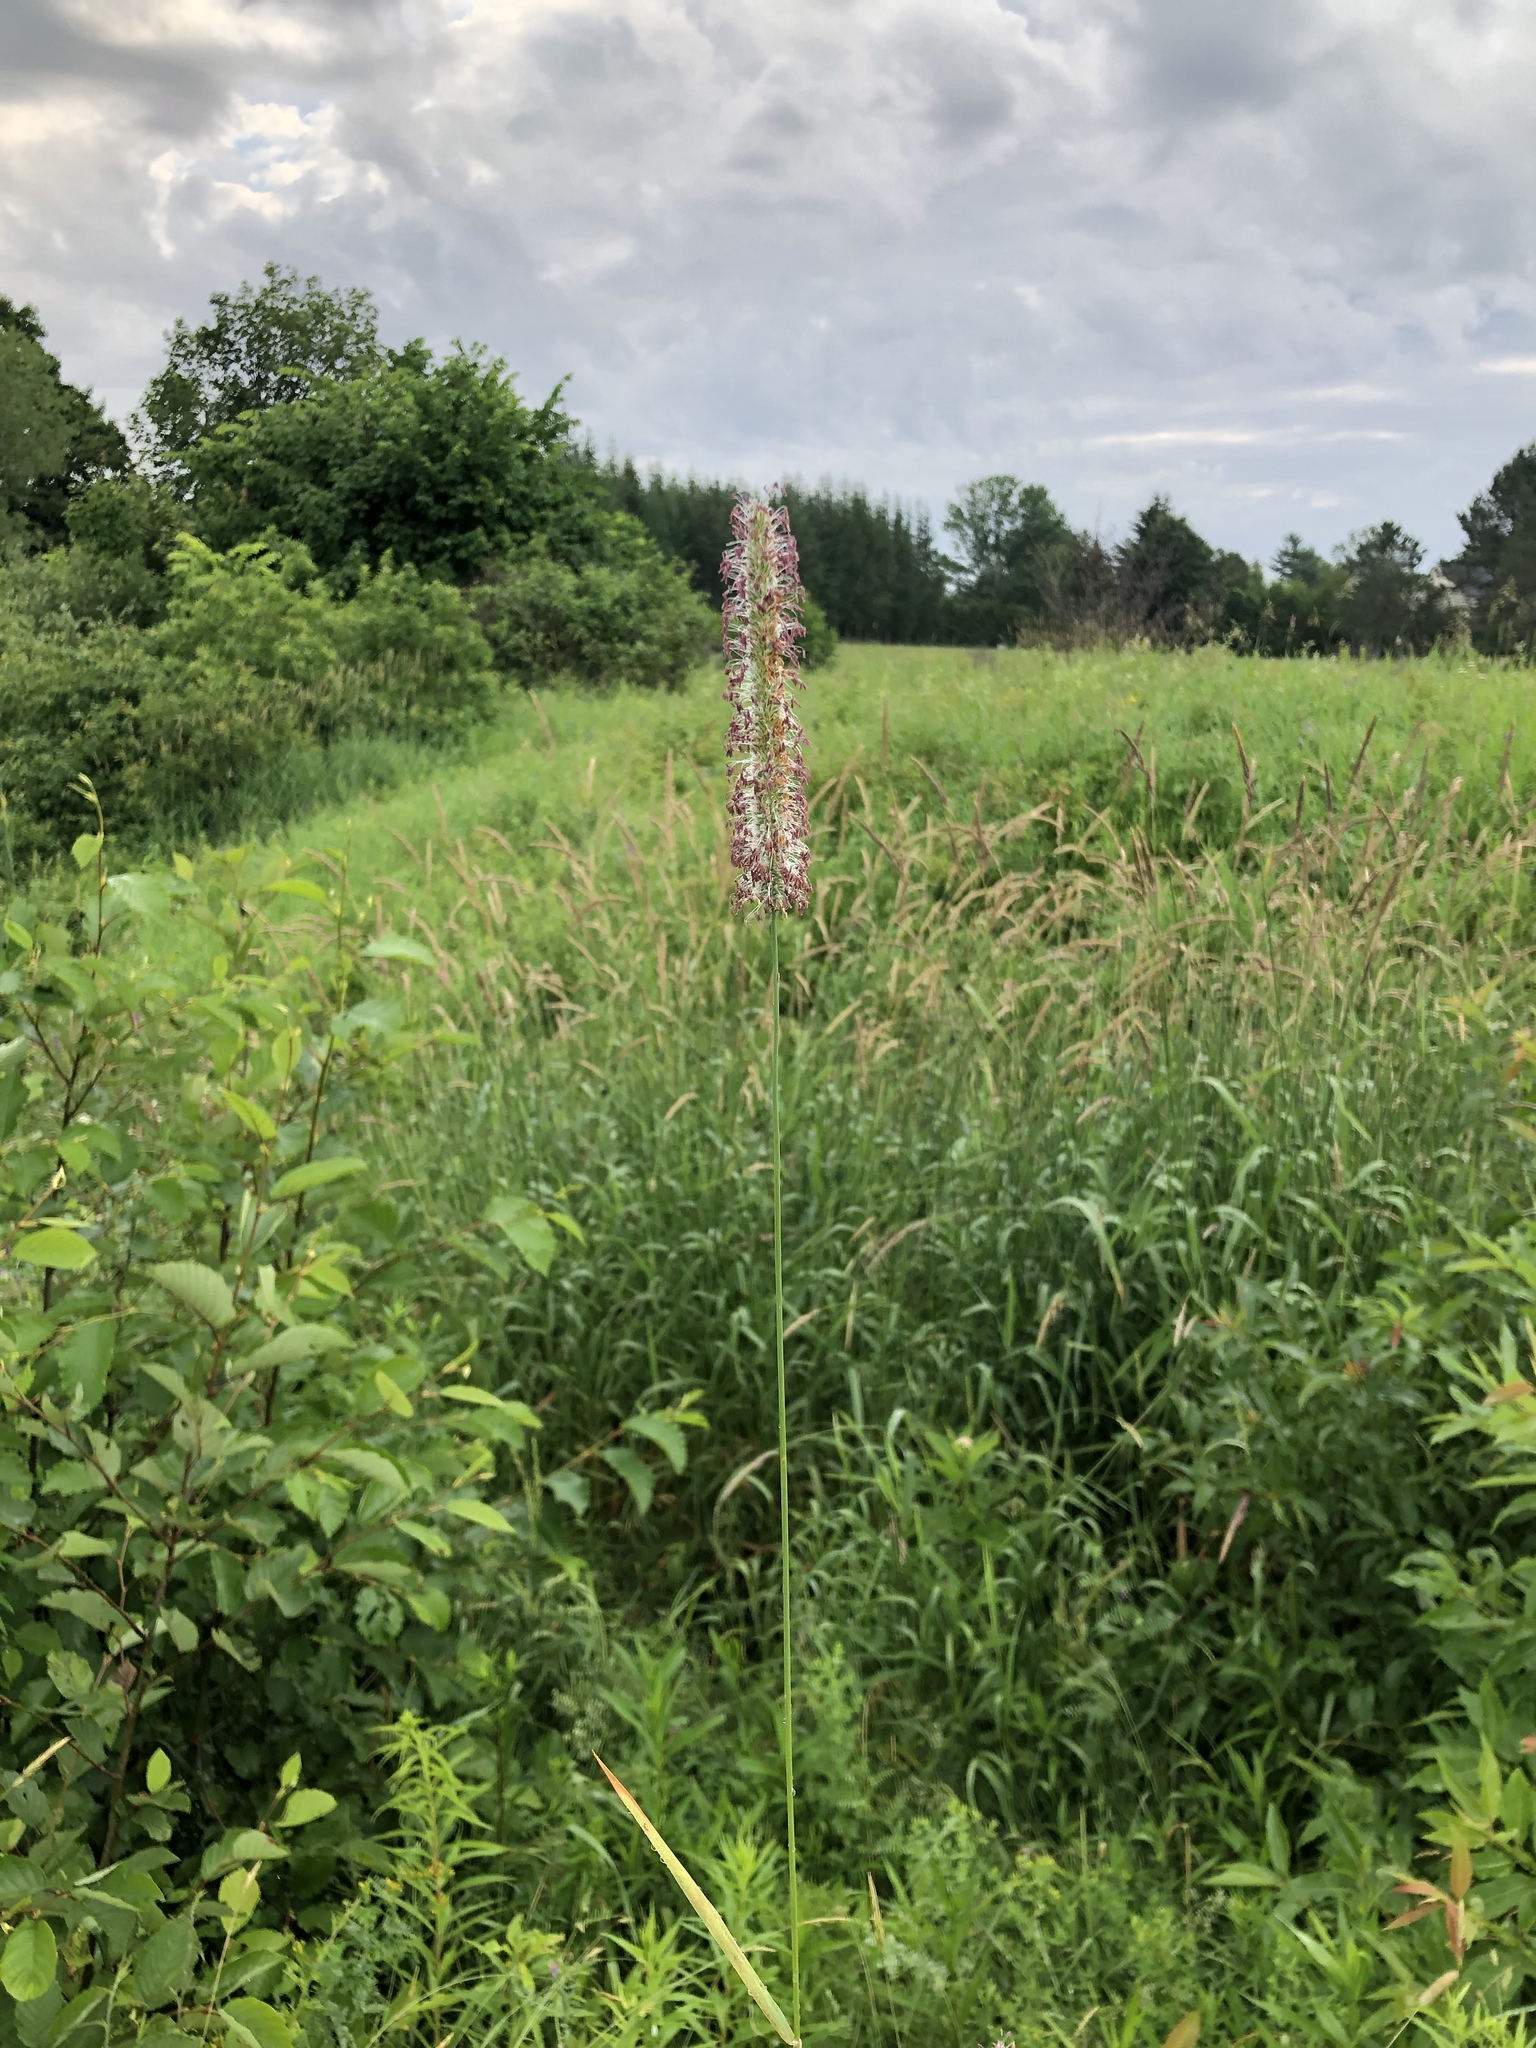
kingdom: Plantae
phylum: Tracheophyta
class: Liliopsida
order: Poales
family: Poaceae
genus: Phleum
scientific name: Phleum pratense
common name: Timothy grass
